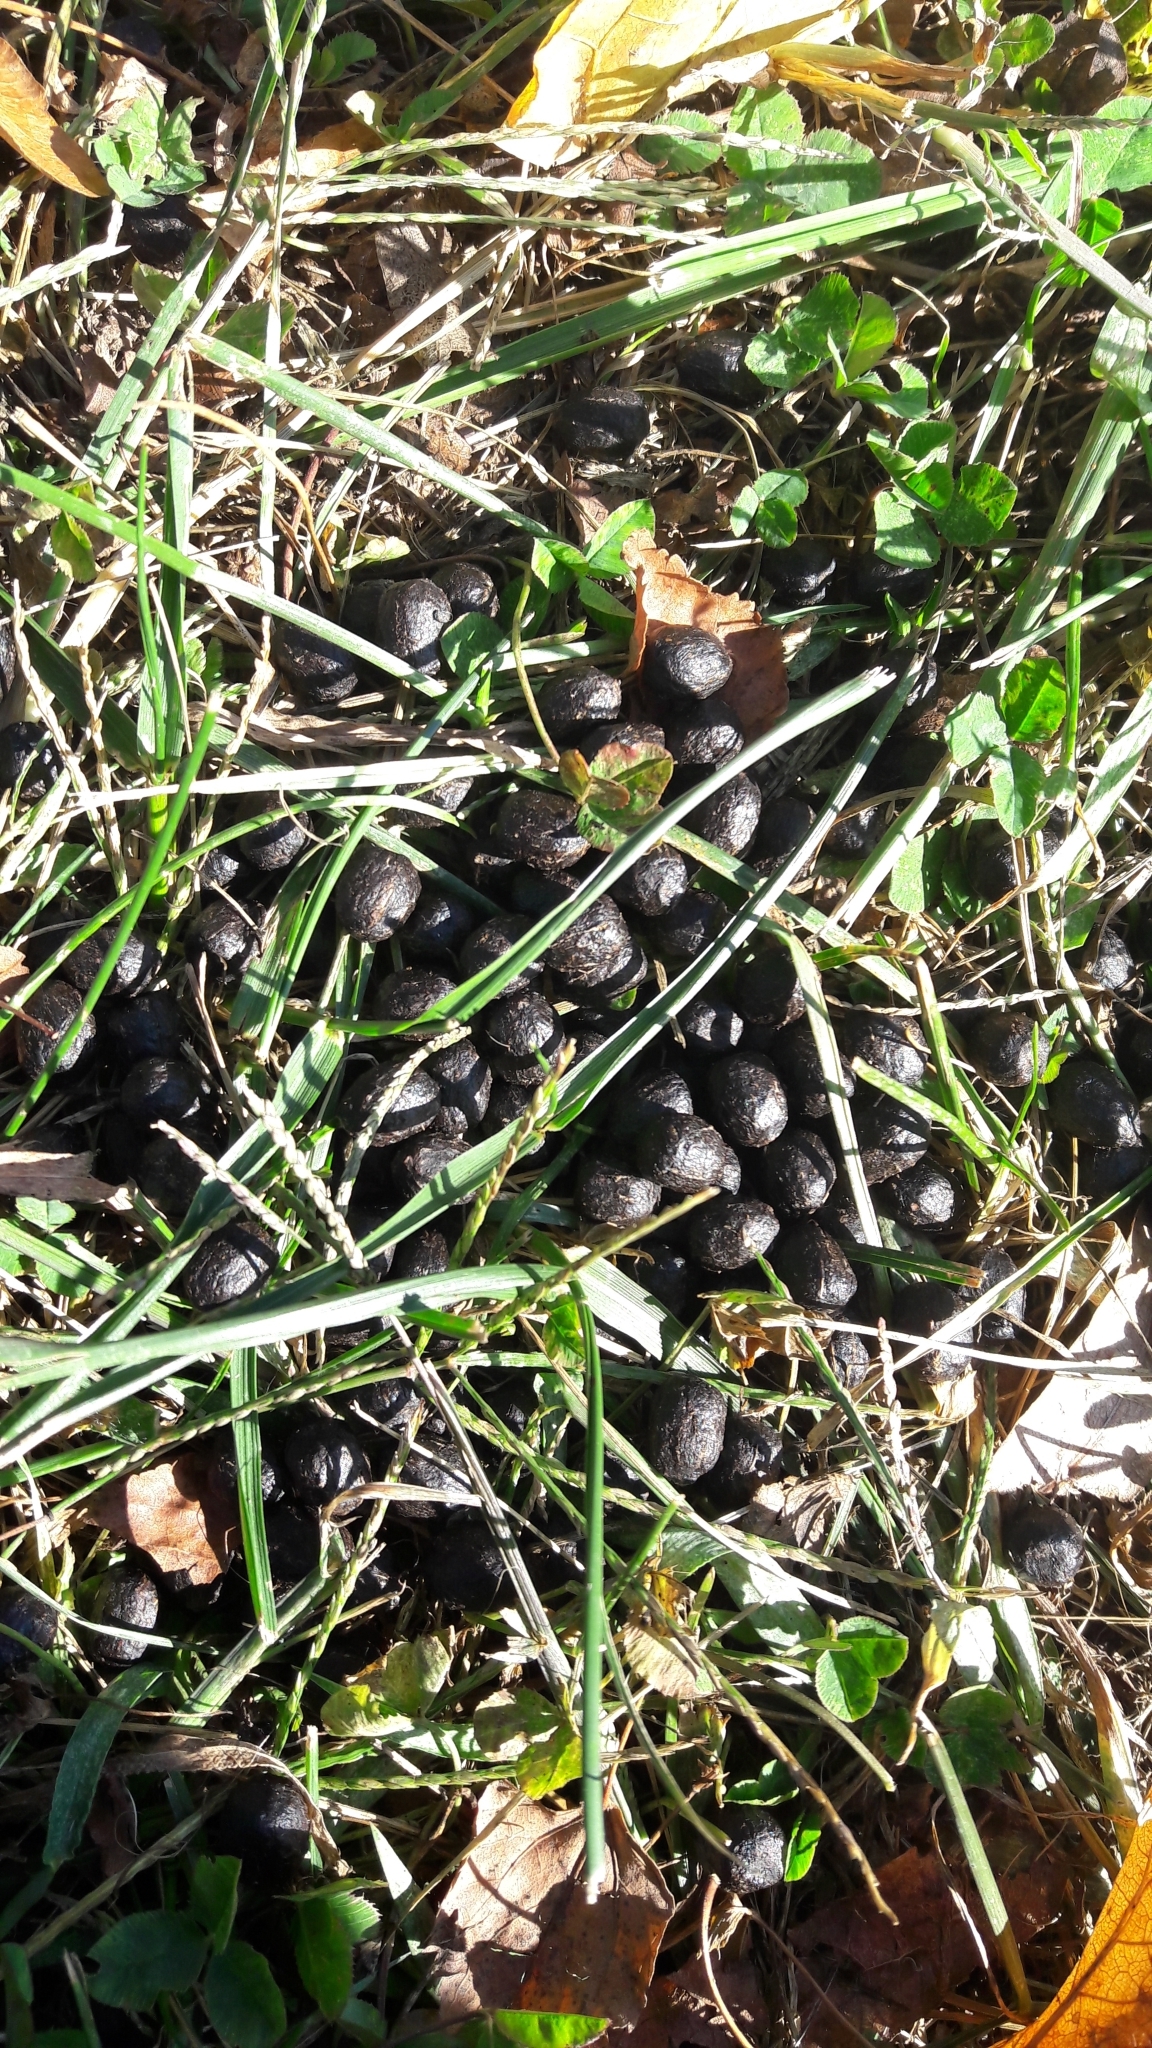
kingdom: Animalia
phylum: Chordata
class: Mammalia
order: Artiodactyla
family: Cervidae
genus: Odocoileus
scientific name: Odocoileus virginianus
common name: White-tailed deer
